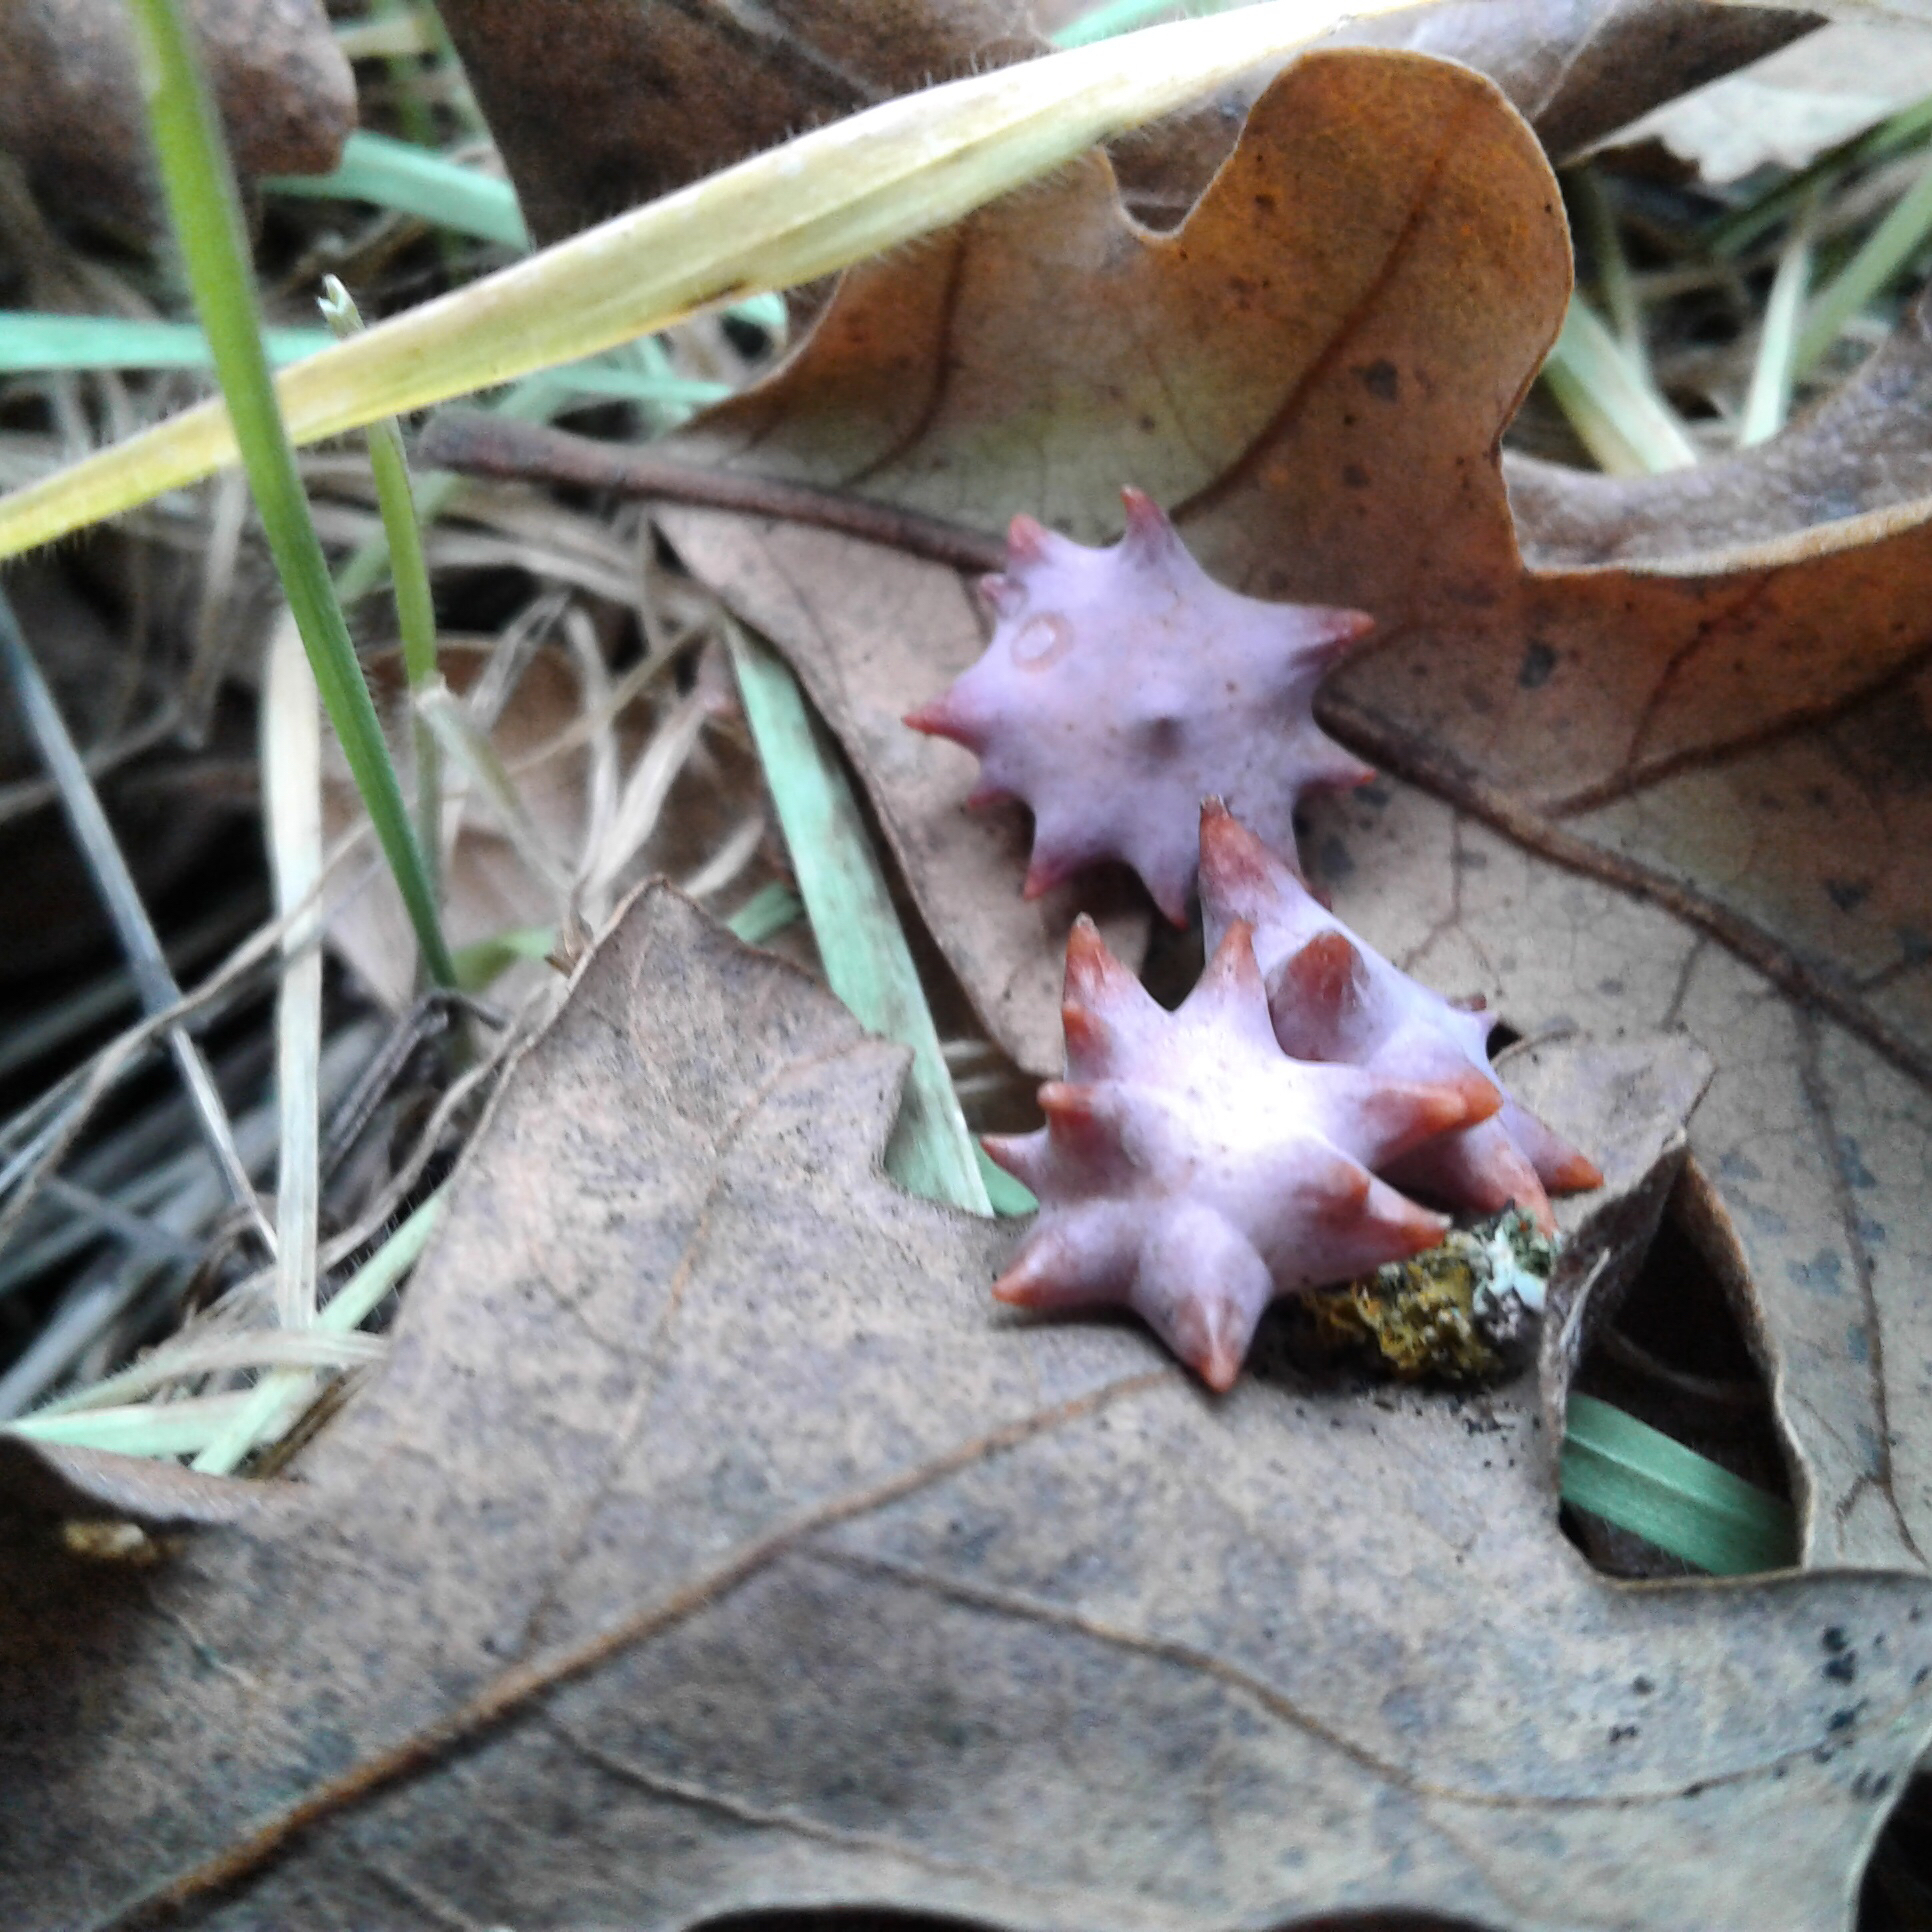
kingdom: Animalia
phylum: Arthropoda
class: Insecta
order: Hymenoptera
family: Cynipidae
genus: Cynips
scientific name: Cynips douglasi
